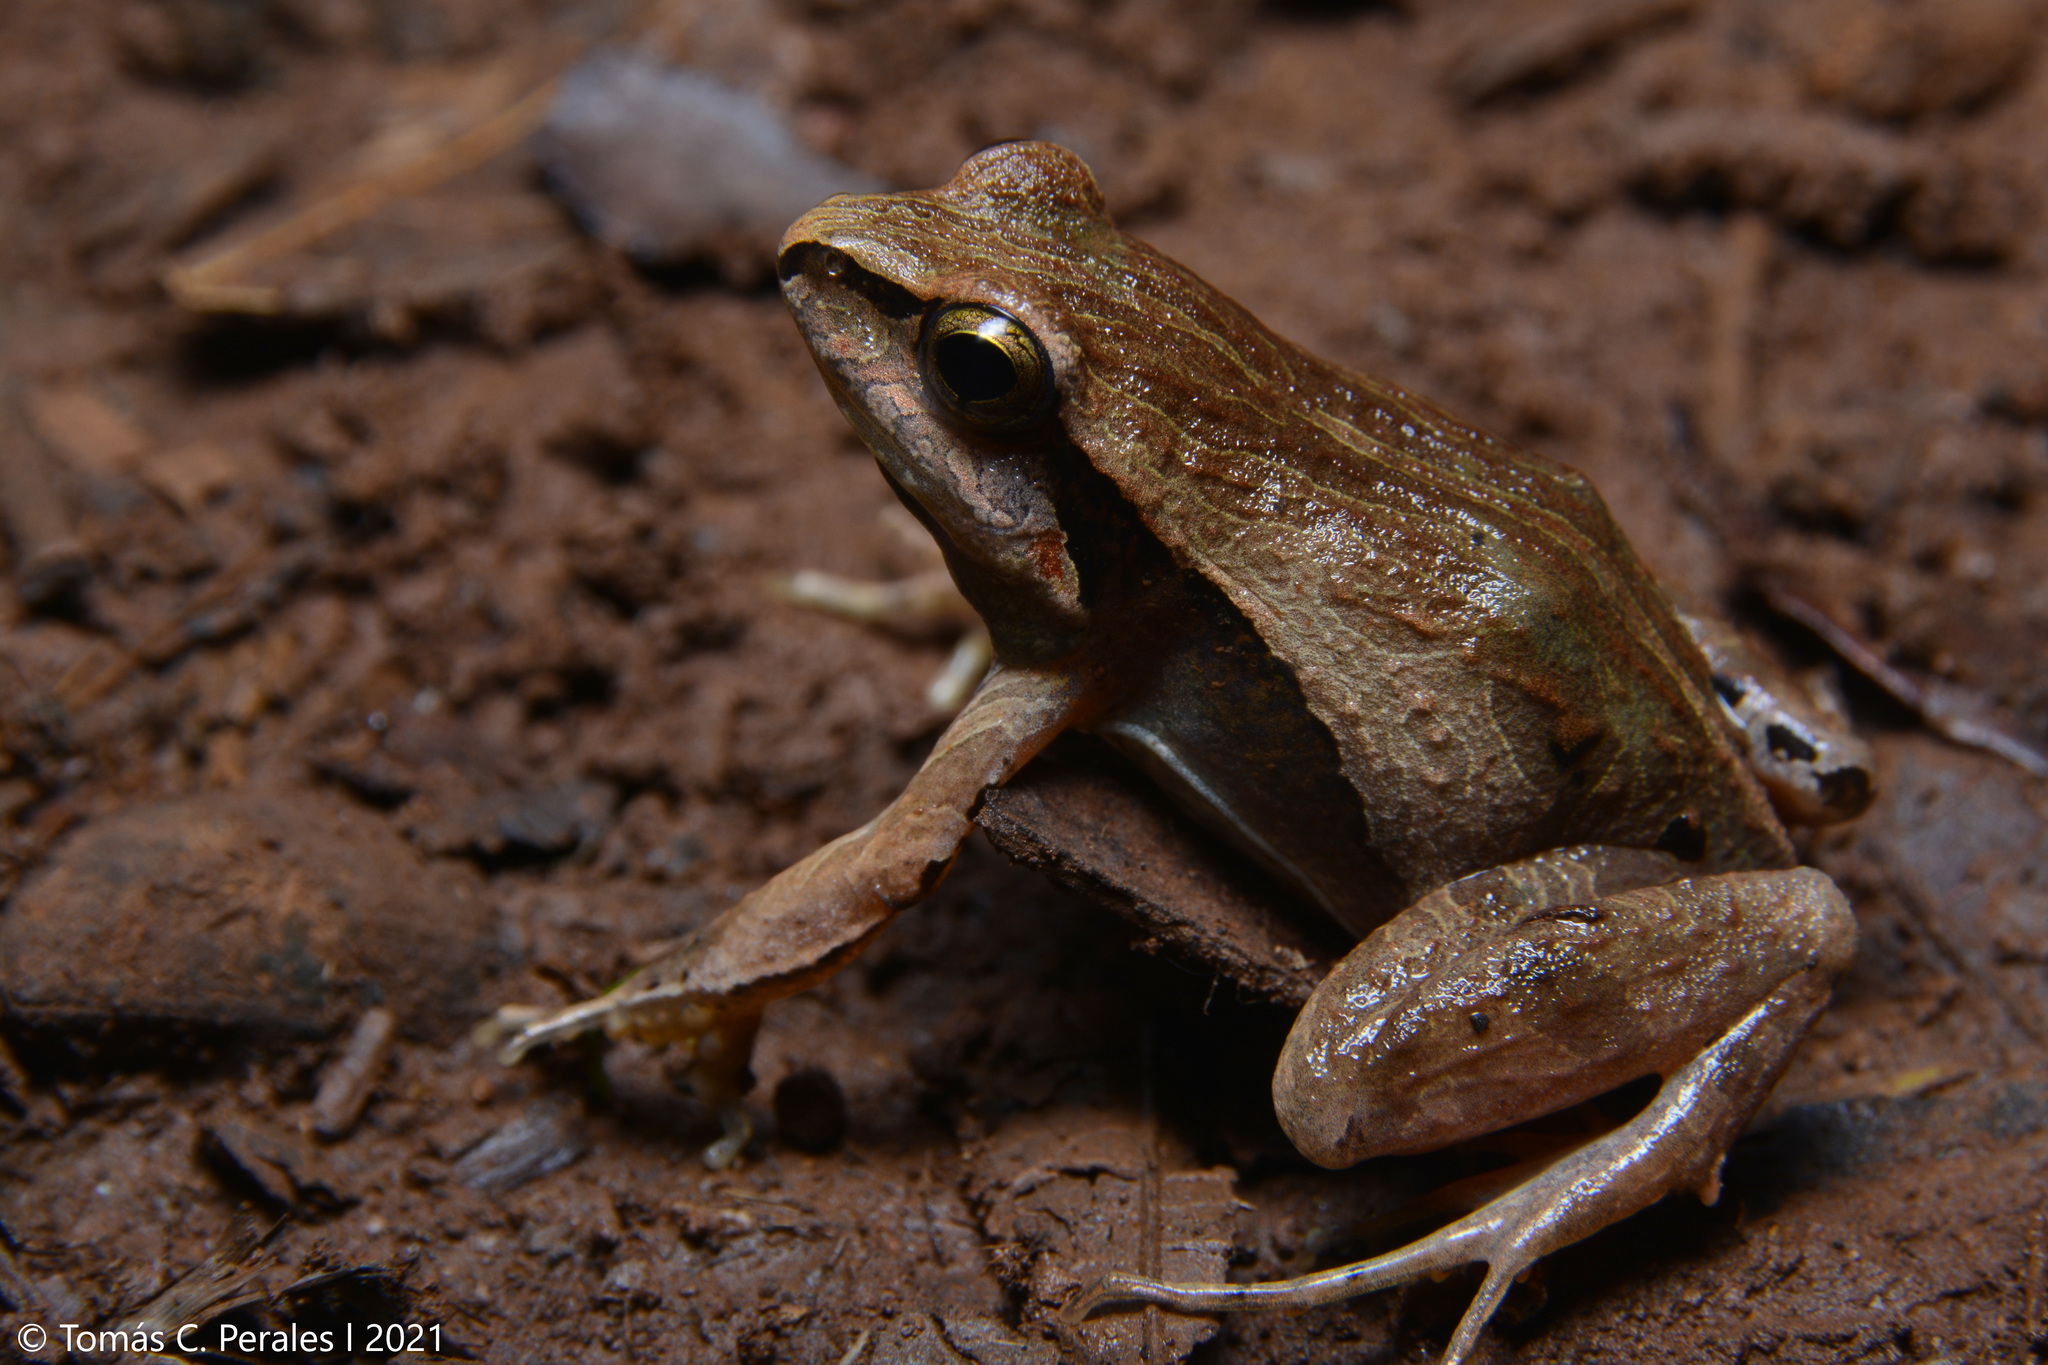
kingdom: Animalia
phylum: Chordata
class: Amphibia
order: Anura
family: Leptodactylidae
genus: Physalaemus
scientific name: Physalaemus cuvieri
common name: Barker frog
